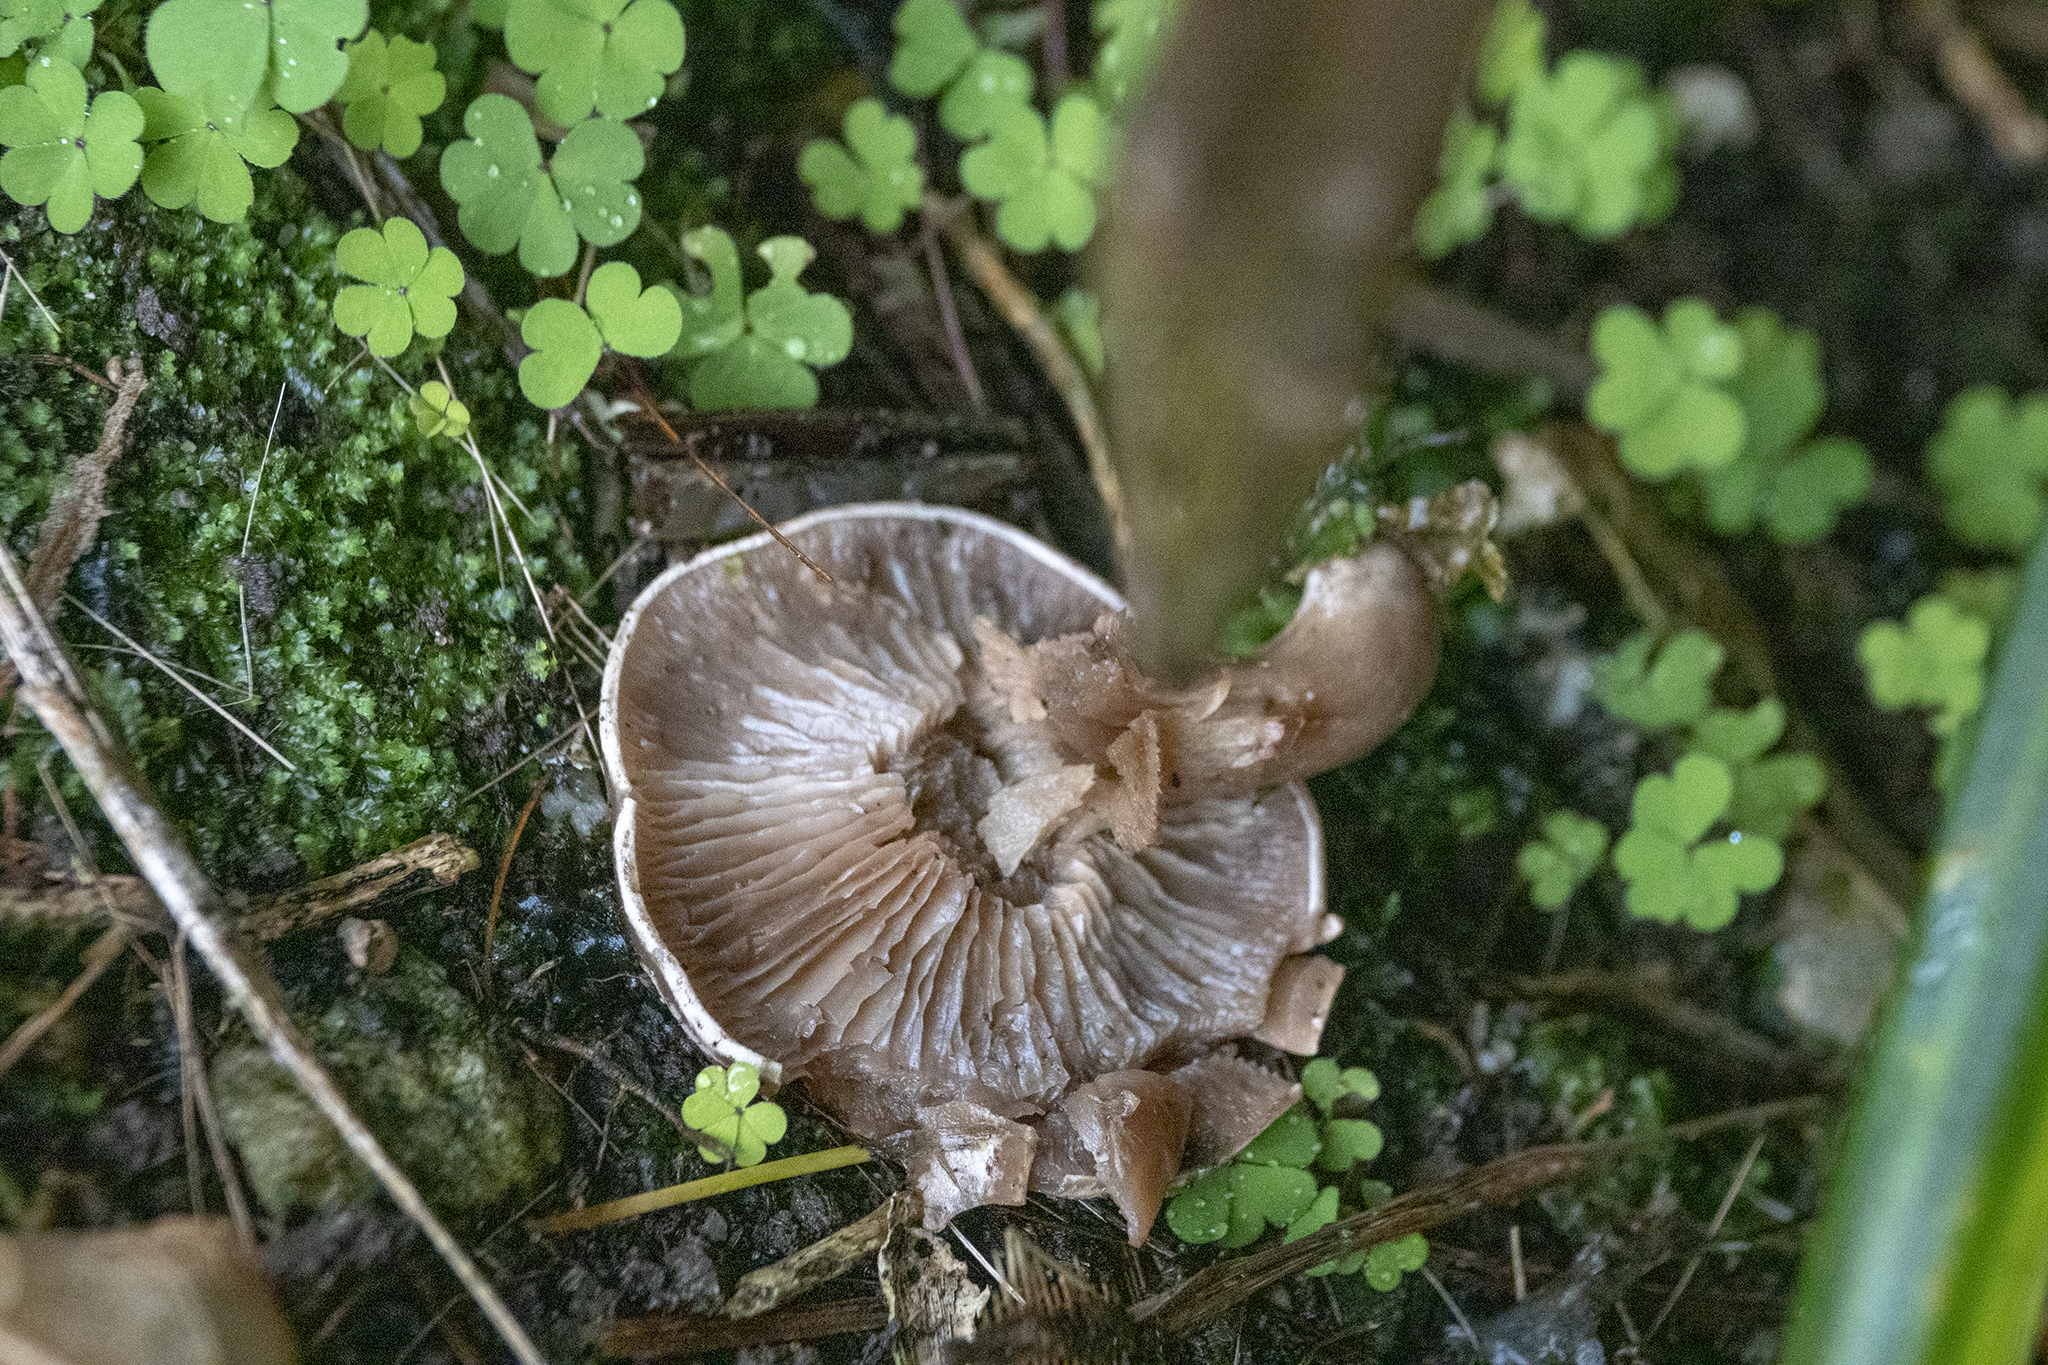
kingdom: Fungi
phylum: Basidiomycota
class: Agaricomycetes
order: Agaricales
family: Tricholomataceae
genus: Lepista
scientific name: Lepista luscina
